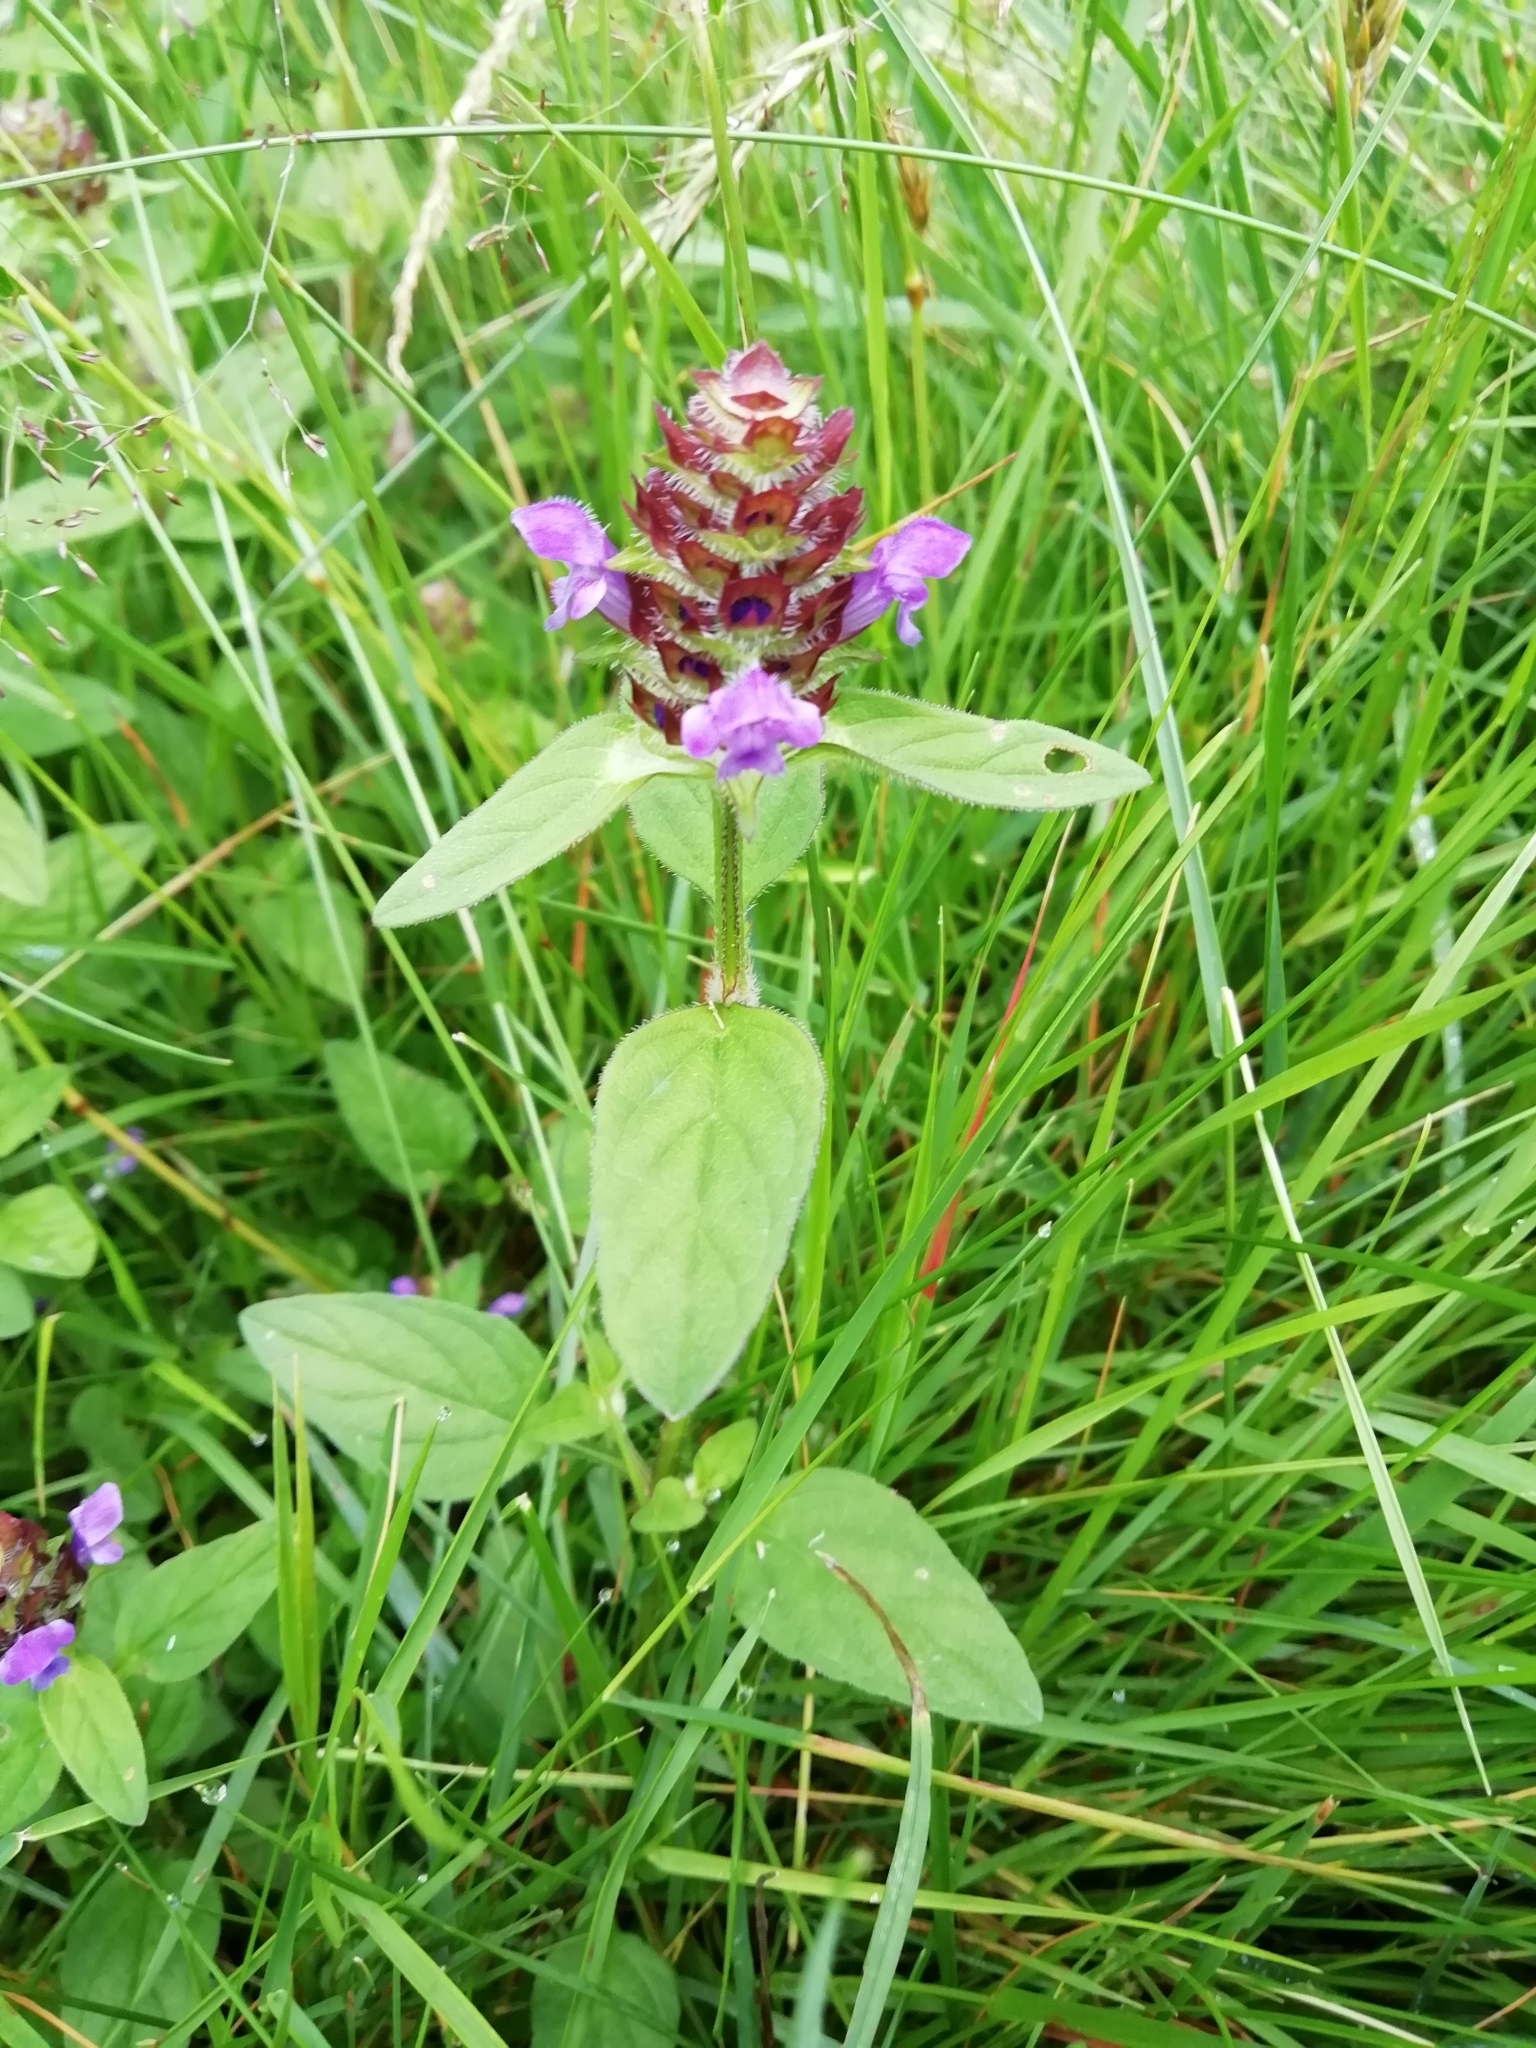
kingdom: Plantae
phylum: Tracheophyta
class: Magnoliopsida
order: Lamiales
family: Lamiaceae
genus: Prunella
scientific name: Prunella vulgaris
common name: Heal-all
